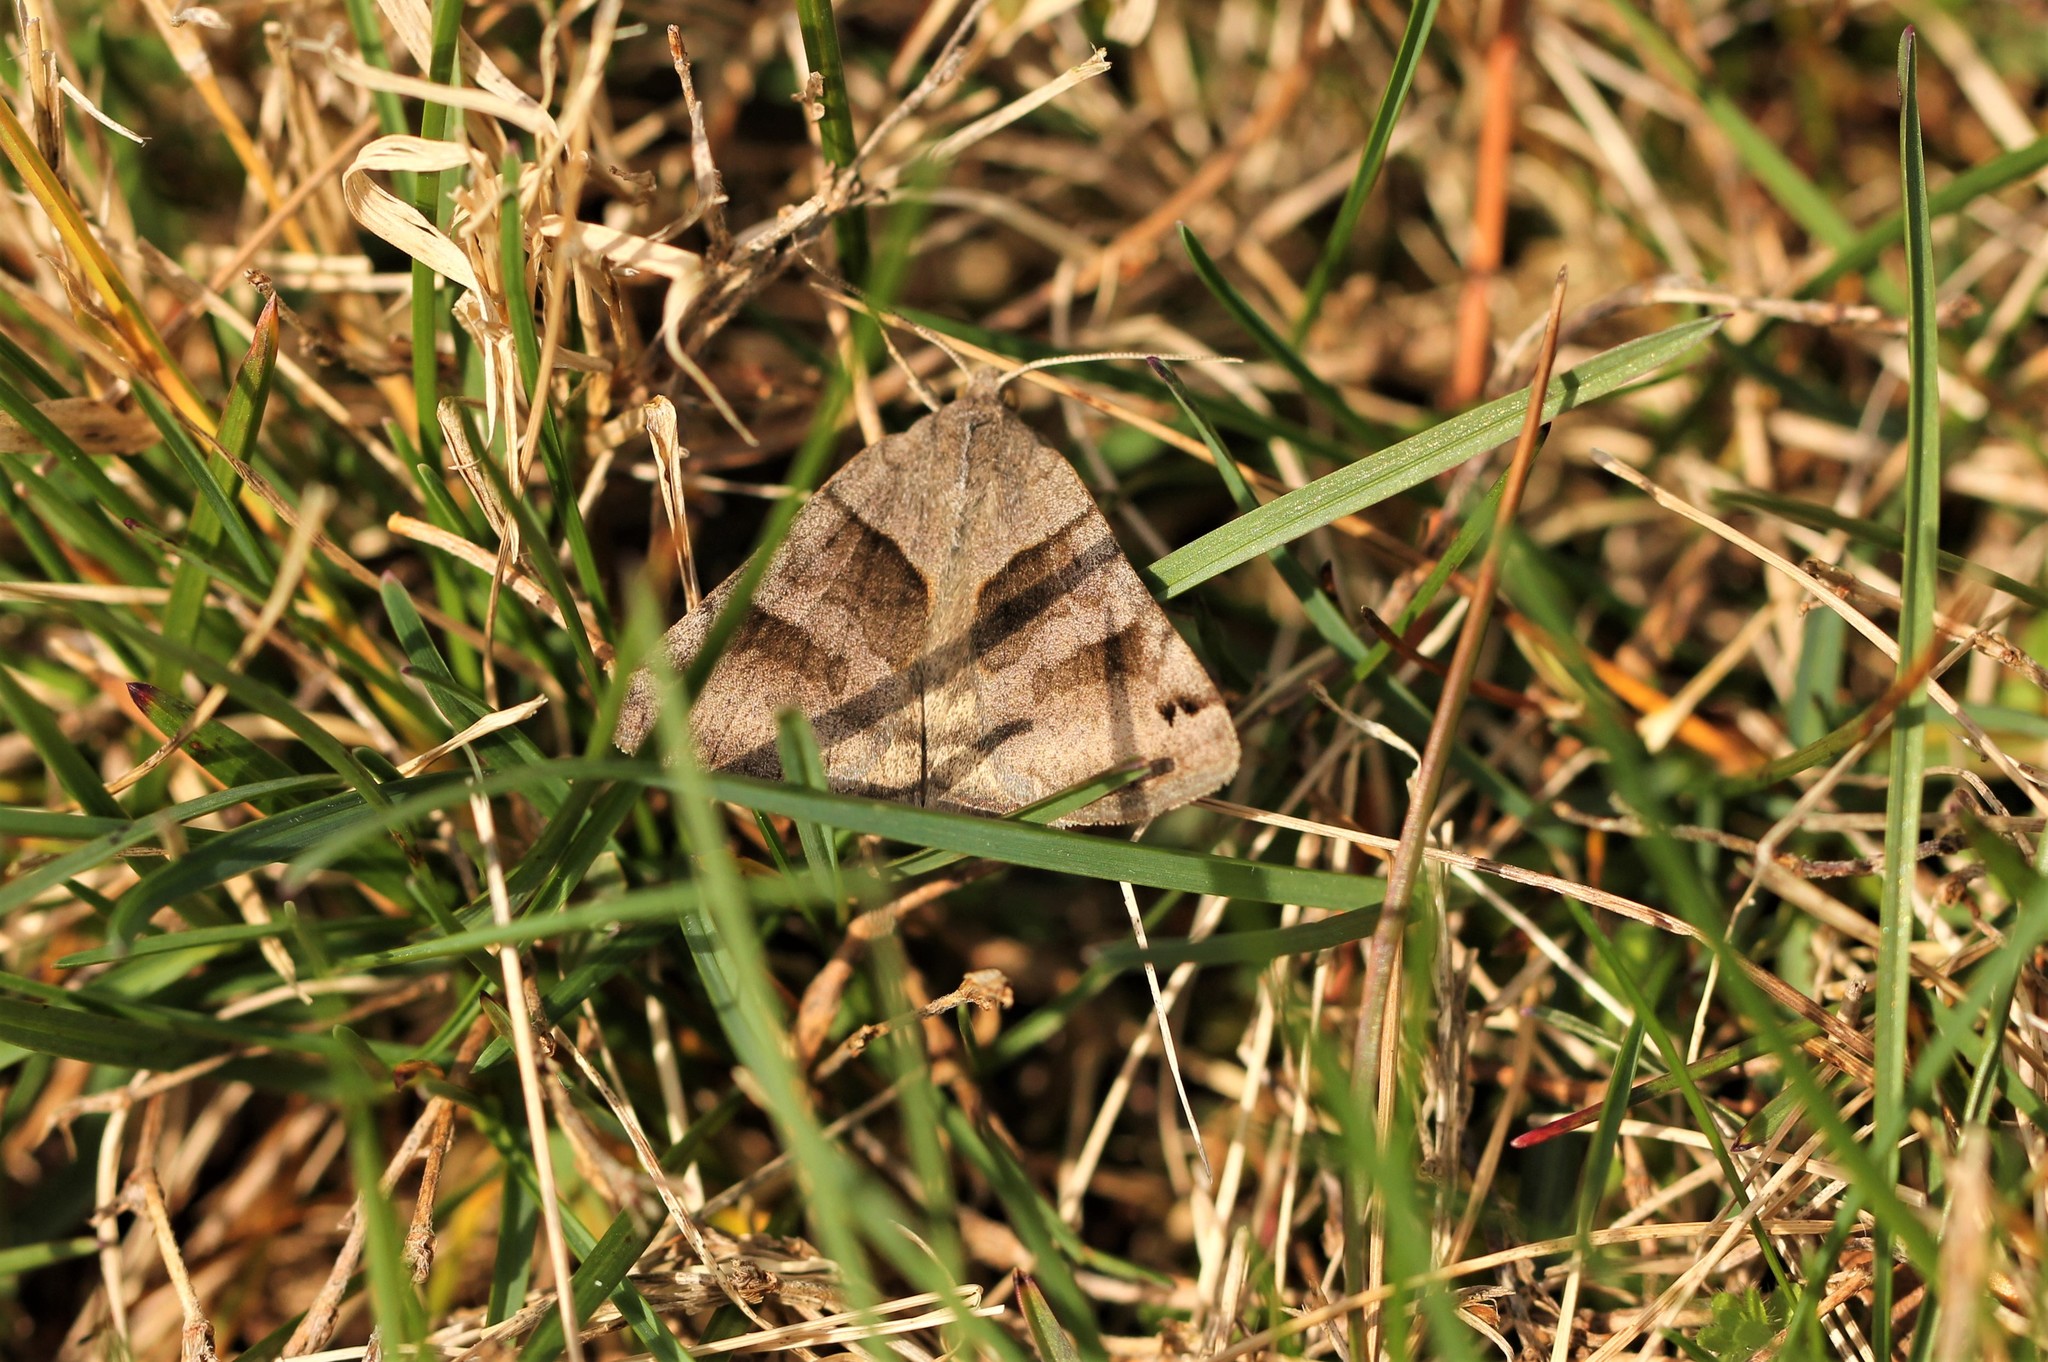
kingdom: Animalia
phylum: Arthropoda
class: Insecta
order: Lepidoptera
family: Erebidae
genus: Caenurgina
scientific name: Caenurgina erechtea
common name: Forage looper moth
